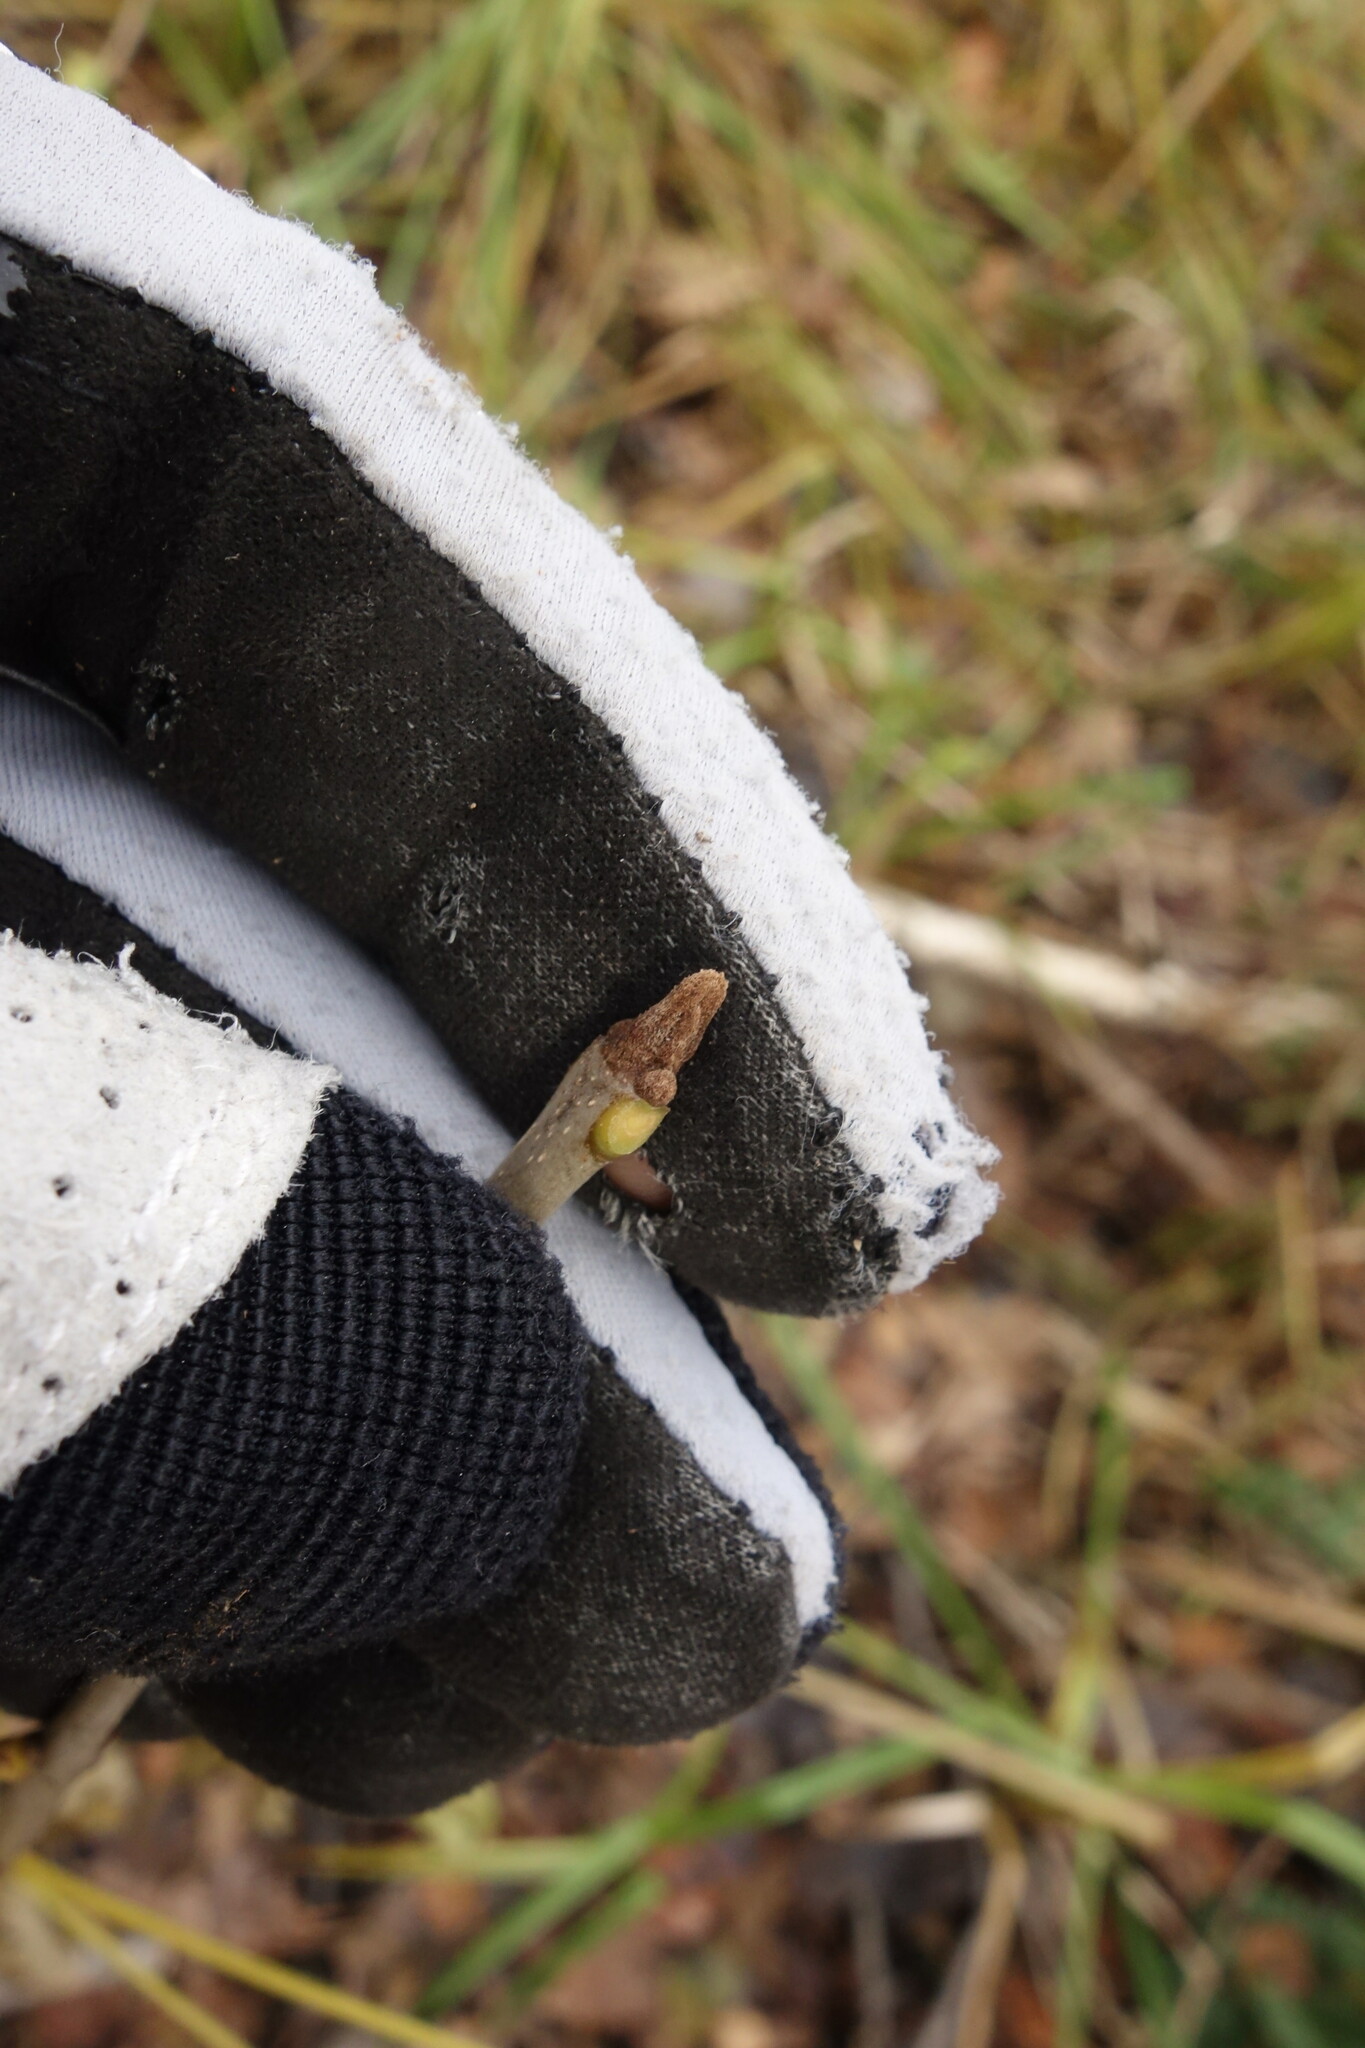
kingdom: Plantae
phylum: Tracheophyta
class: Magnoliopsida
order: Lamiales
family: Oleaceae
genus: Fraxinus
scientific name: Fraxinus pennsylvanica
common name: Green ash
